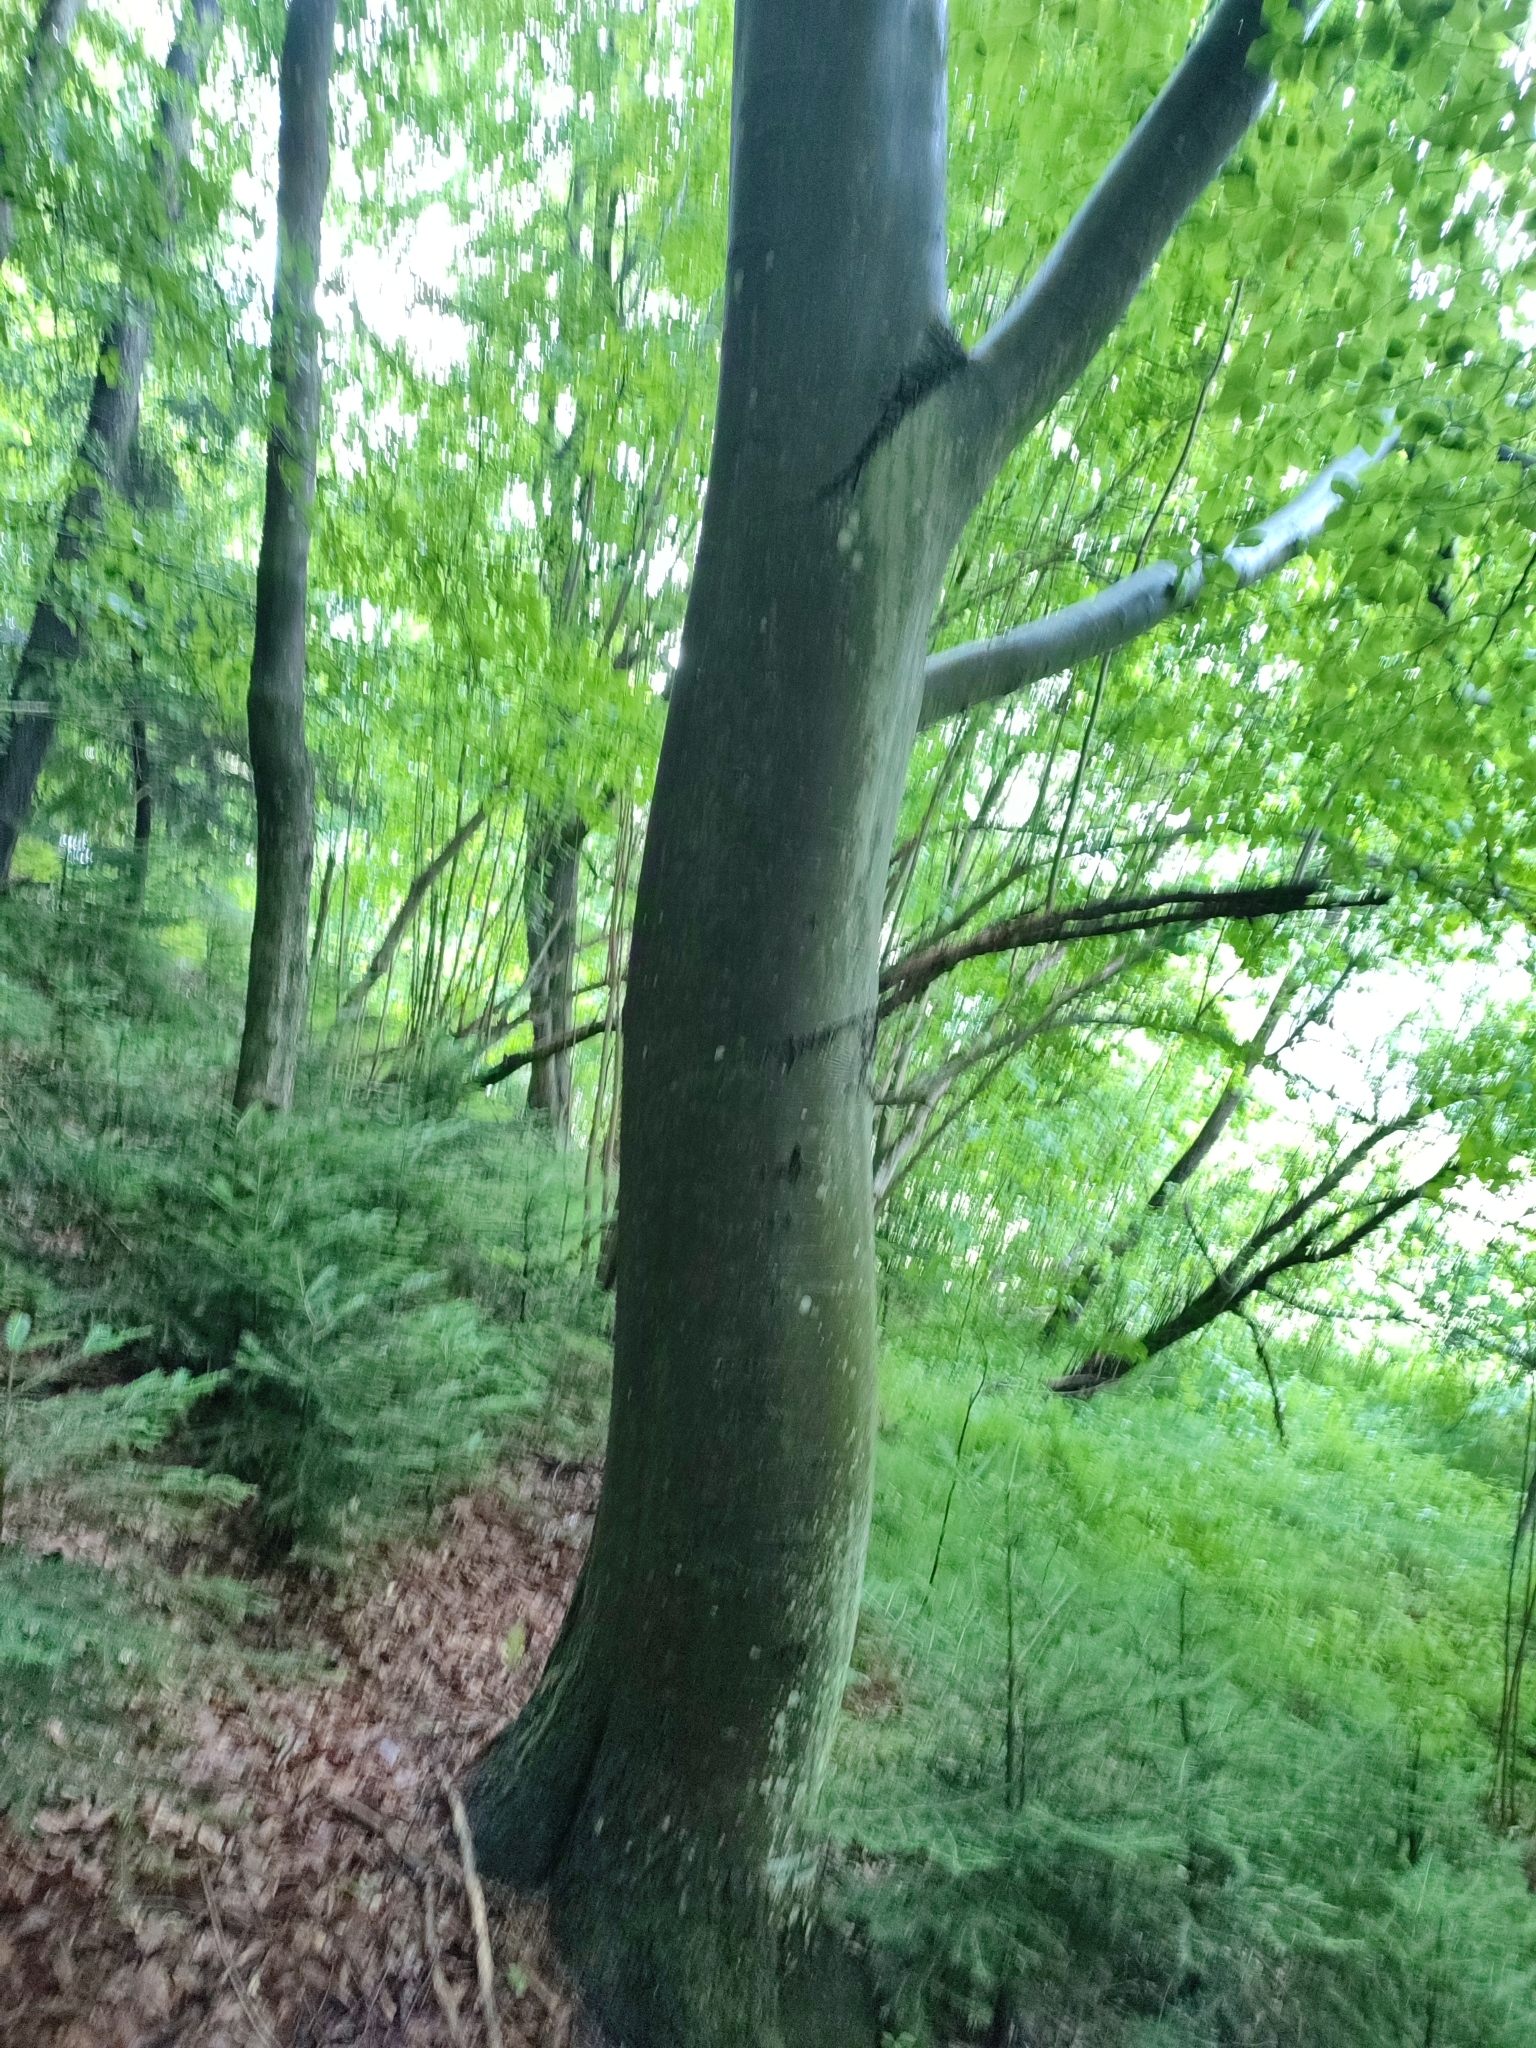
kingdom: Plantae
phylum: Tracheophyta
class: Magnoliopsida
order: Fagales
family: Fagaceae
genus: Fagus
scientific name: Fagus sylvatica
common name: Beech
